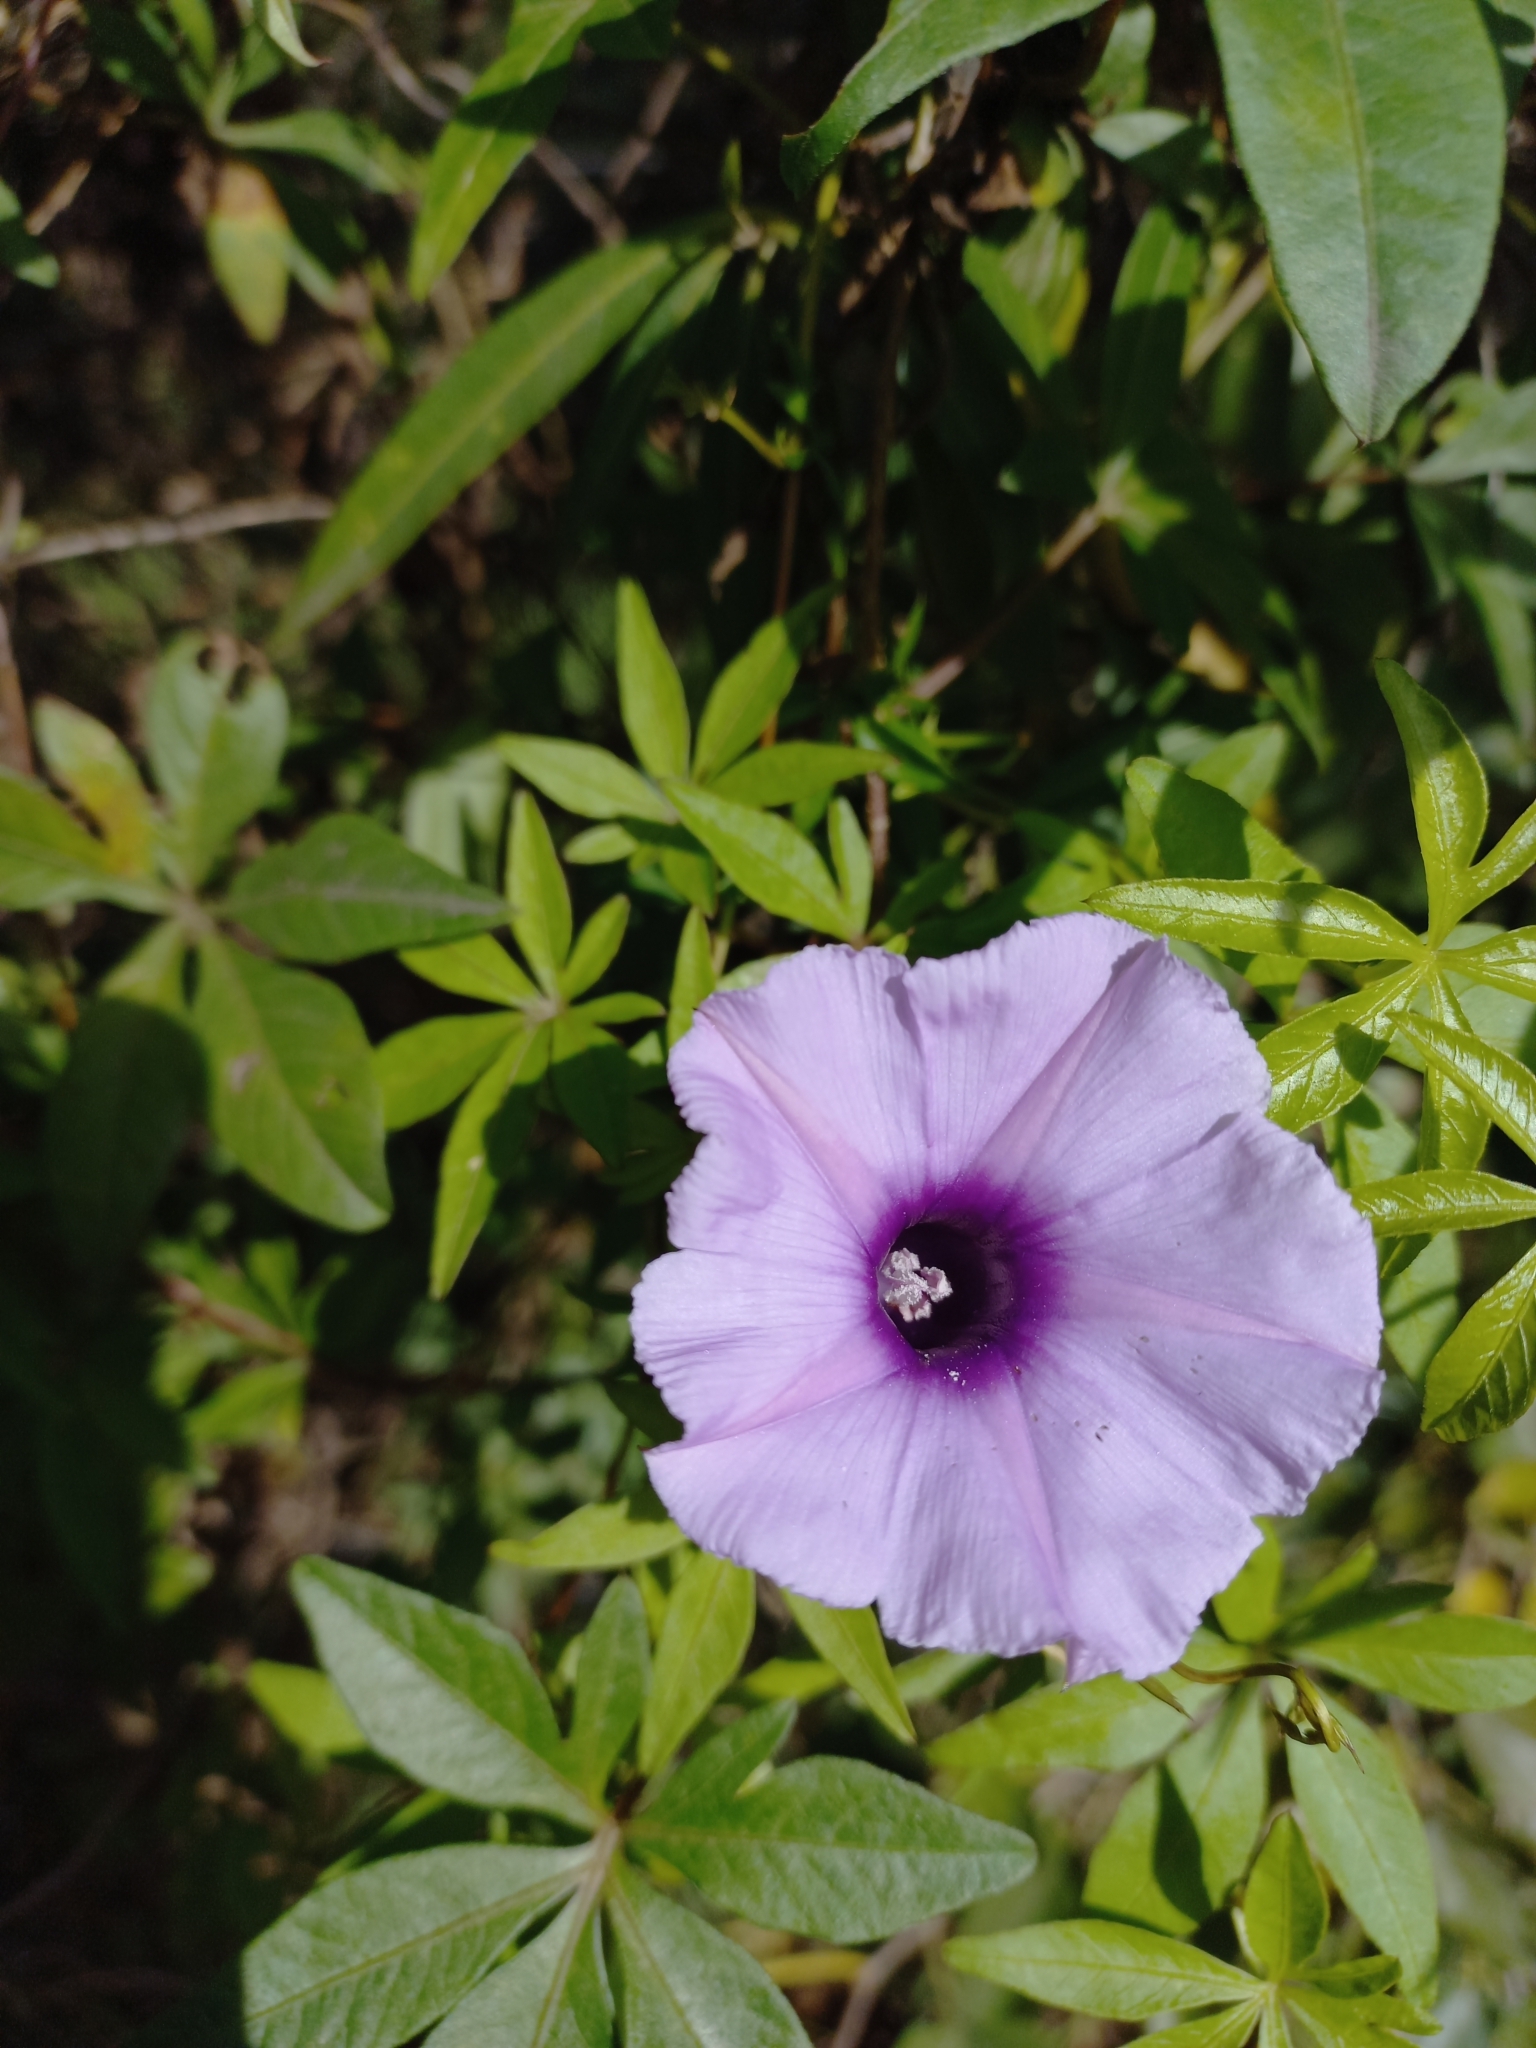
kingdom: Plantae
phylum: Tracheophyta
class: Magnoliopsida
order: Solanales
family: Convolvulaceae
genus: Ipomoea
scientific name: Ipomoea cairica
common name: Mile a minute vine
